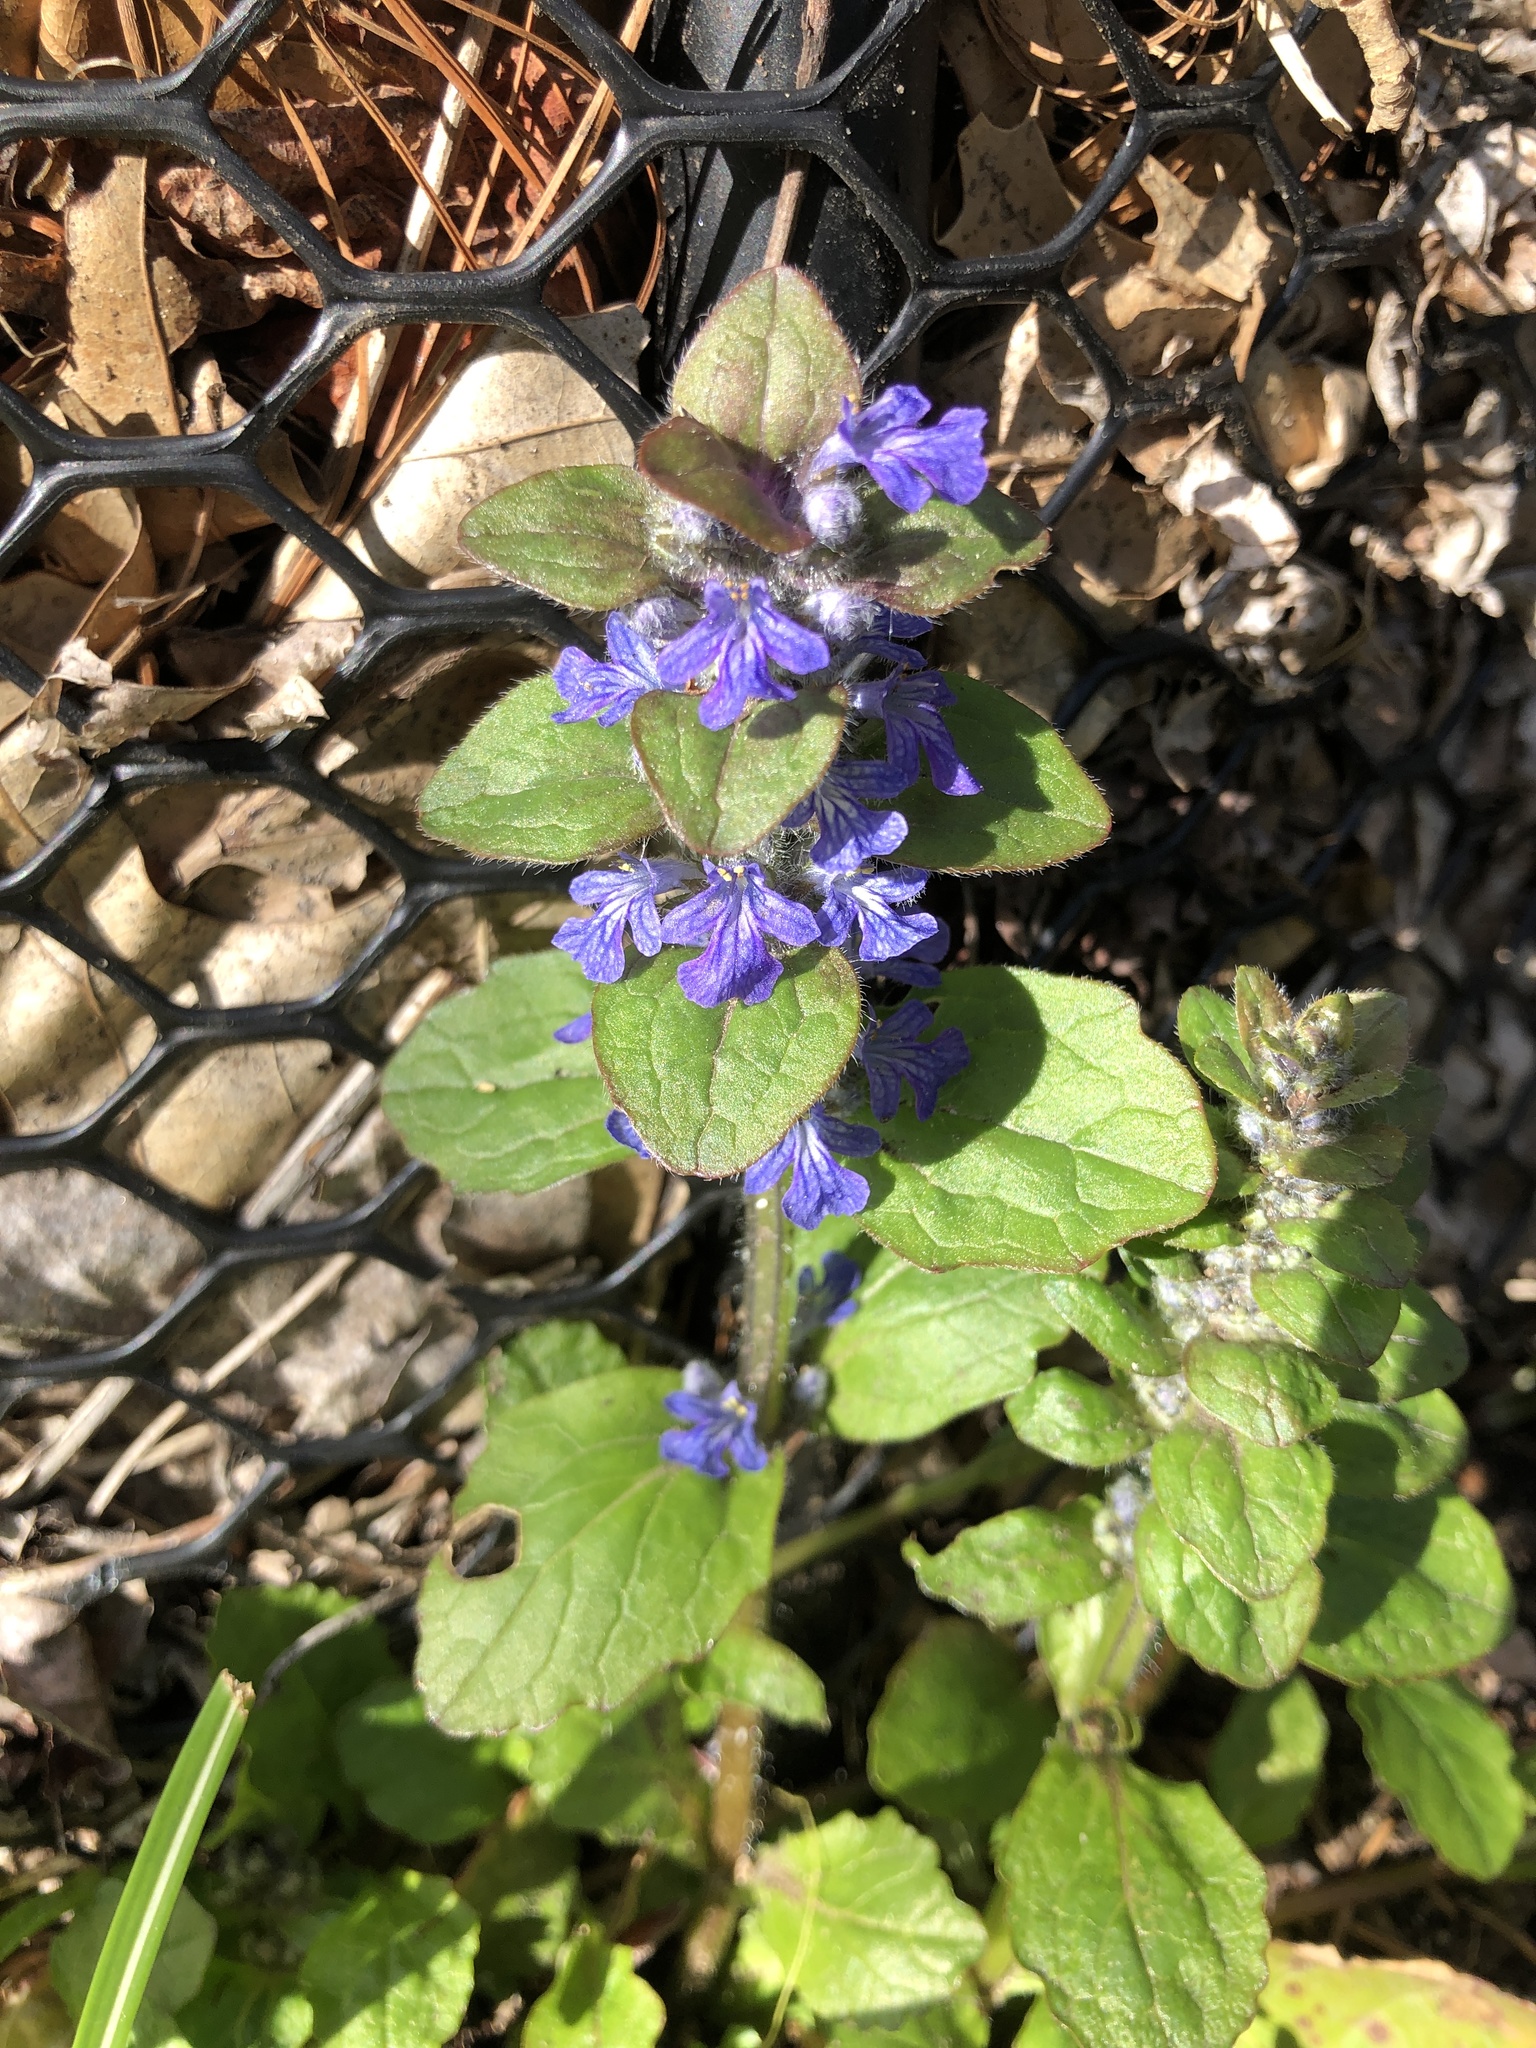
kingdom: Plantae
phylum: Tracheophyta
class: Magnoliopsida
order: Lamiales
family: Lamiaceae
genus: Ajuga
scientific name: Ajuga reptans
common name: Bugle
